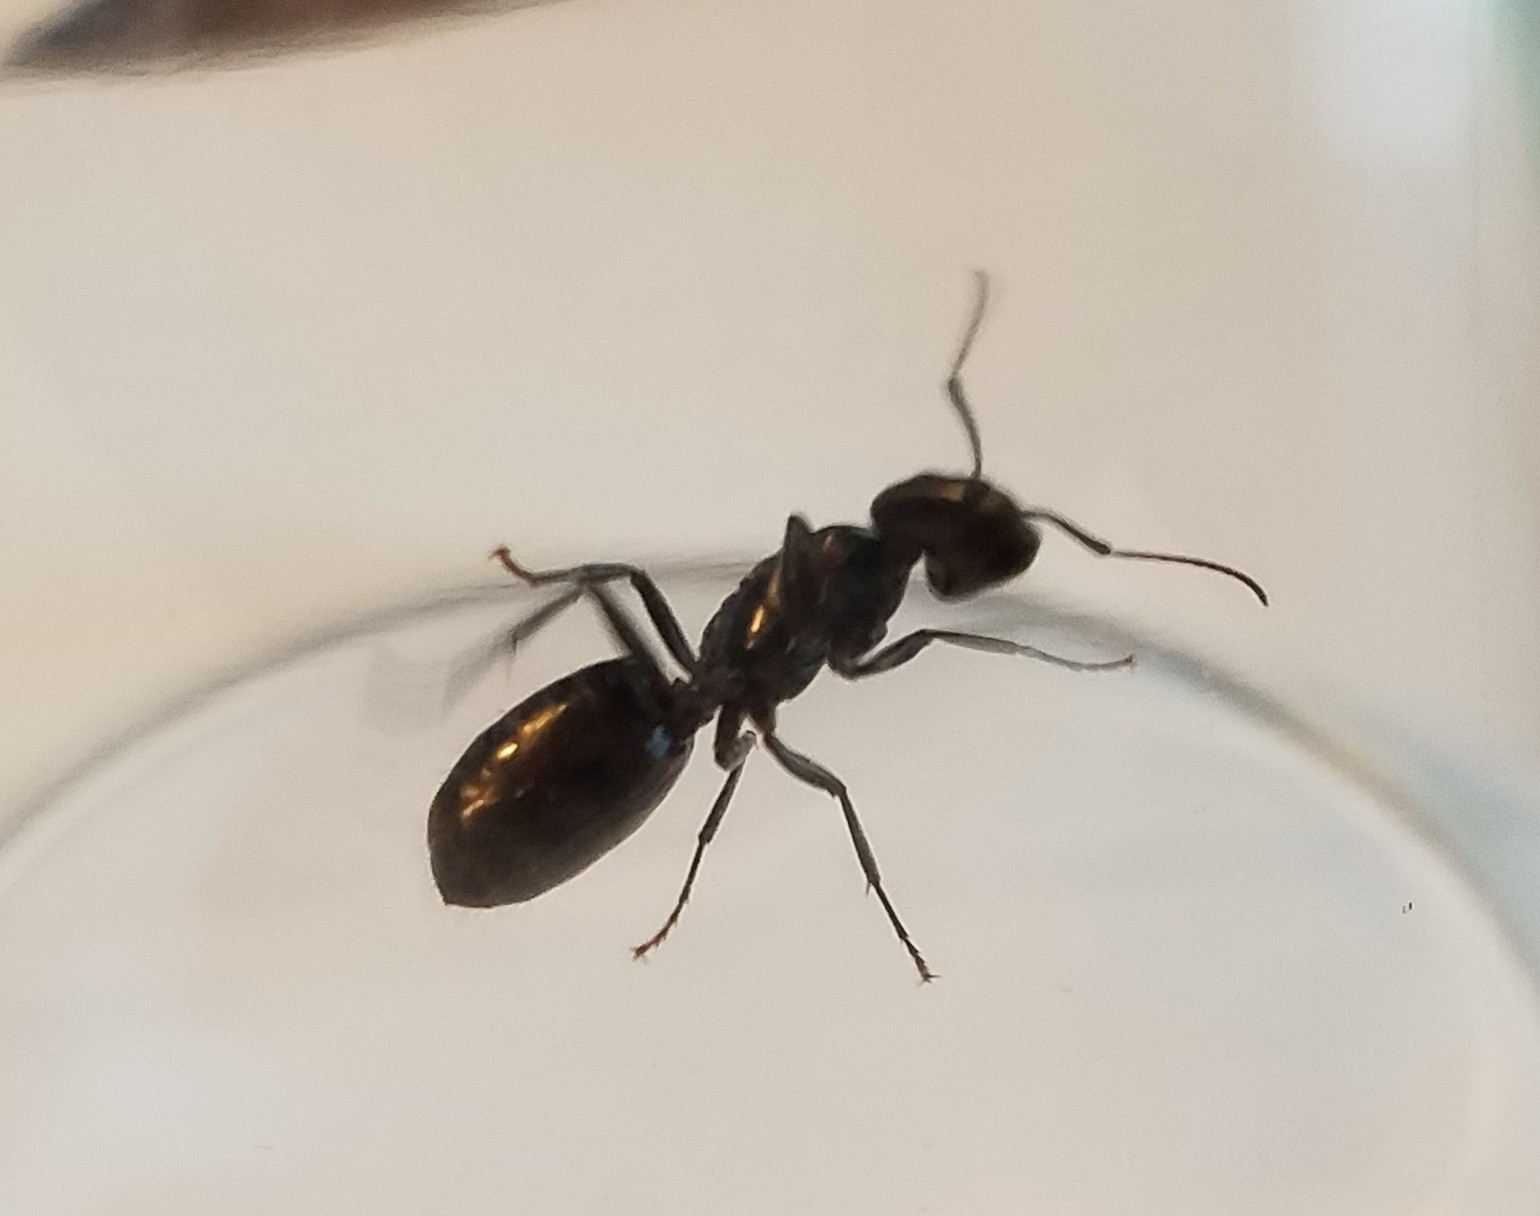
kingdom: Animalia
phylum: Arthropoda
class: Insecta
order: Hymenoptera
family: Formicidae
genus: Camponotus
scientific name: Camponotus pennsylvanicus
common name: Black carpenter ant
